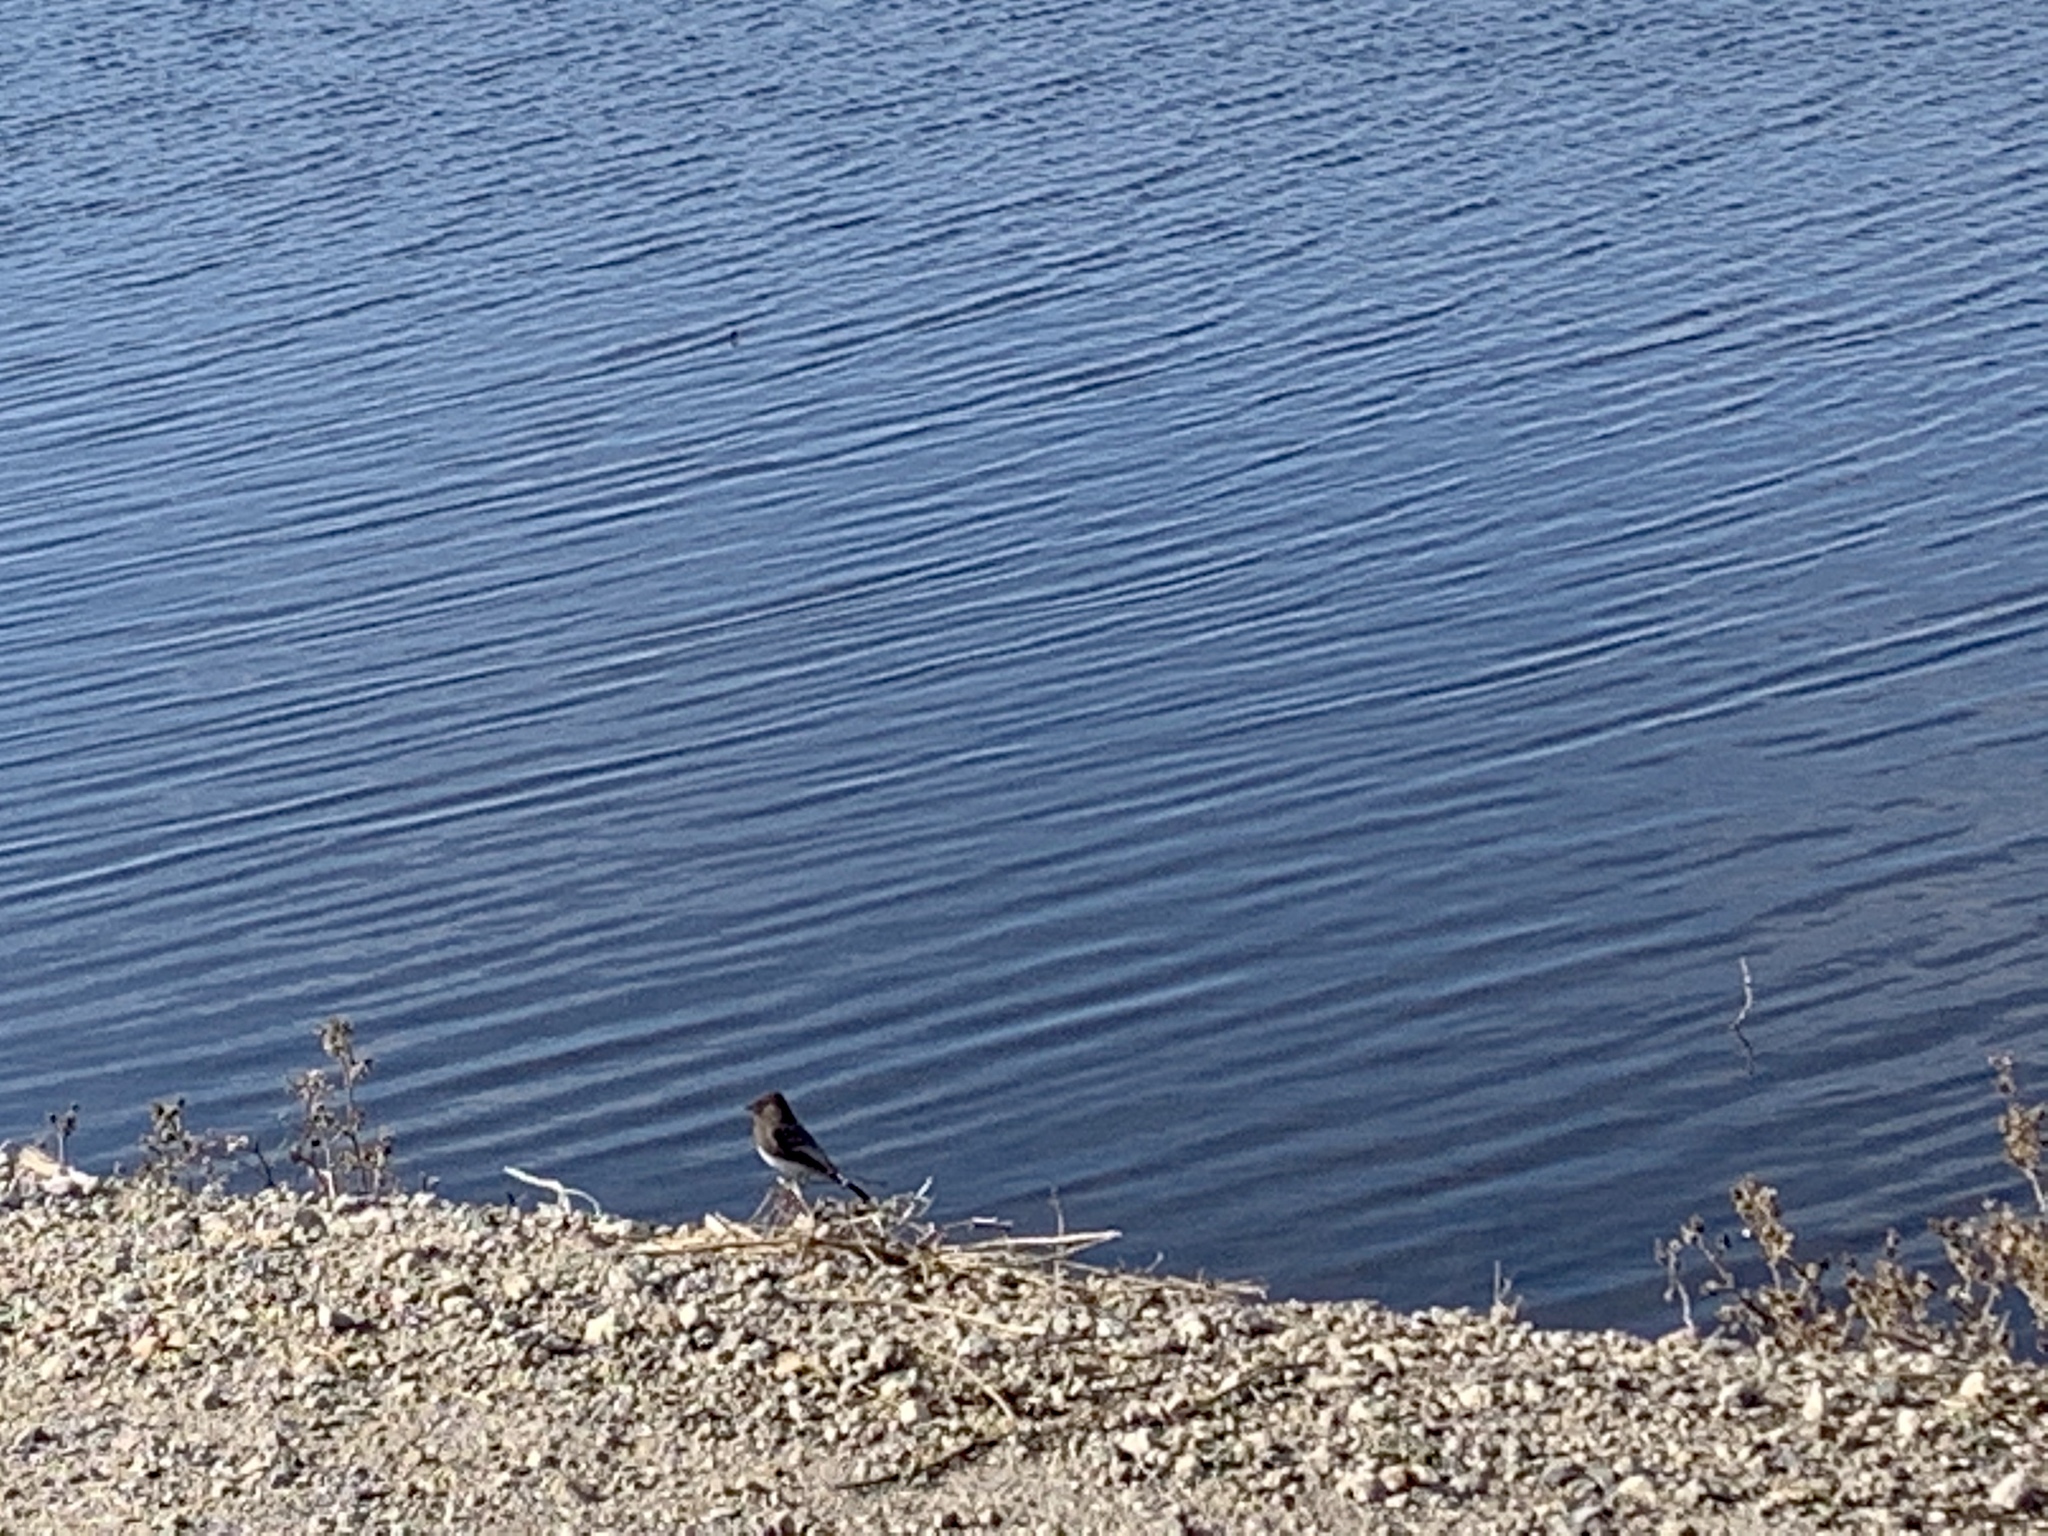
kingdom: Animalia
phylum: Chordata
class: Aves
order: Passeriformes
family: Tyrannidae
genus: Sayornis
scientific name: Sayornis nigricans
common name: Black phoebe
